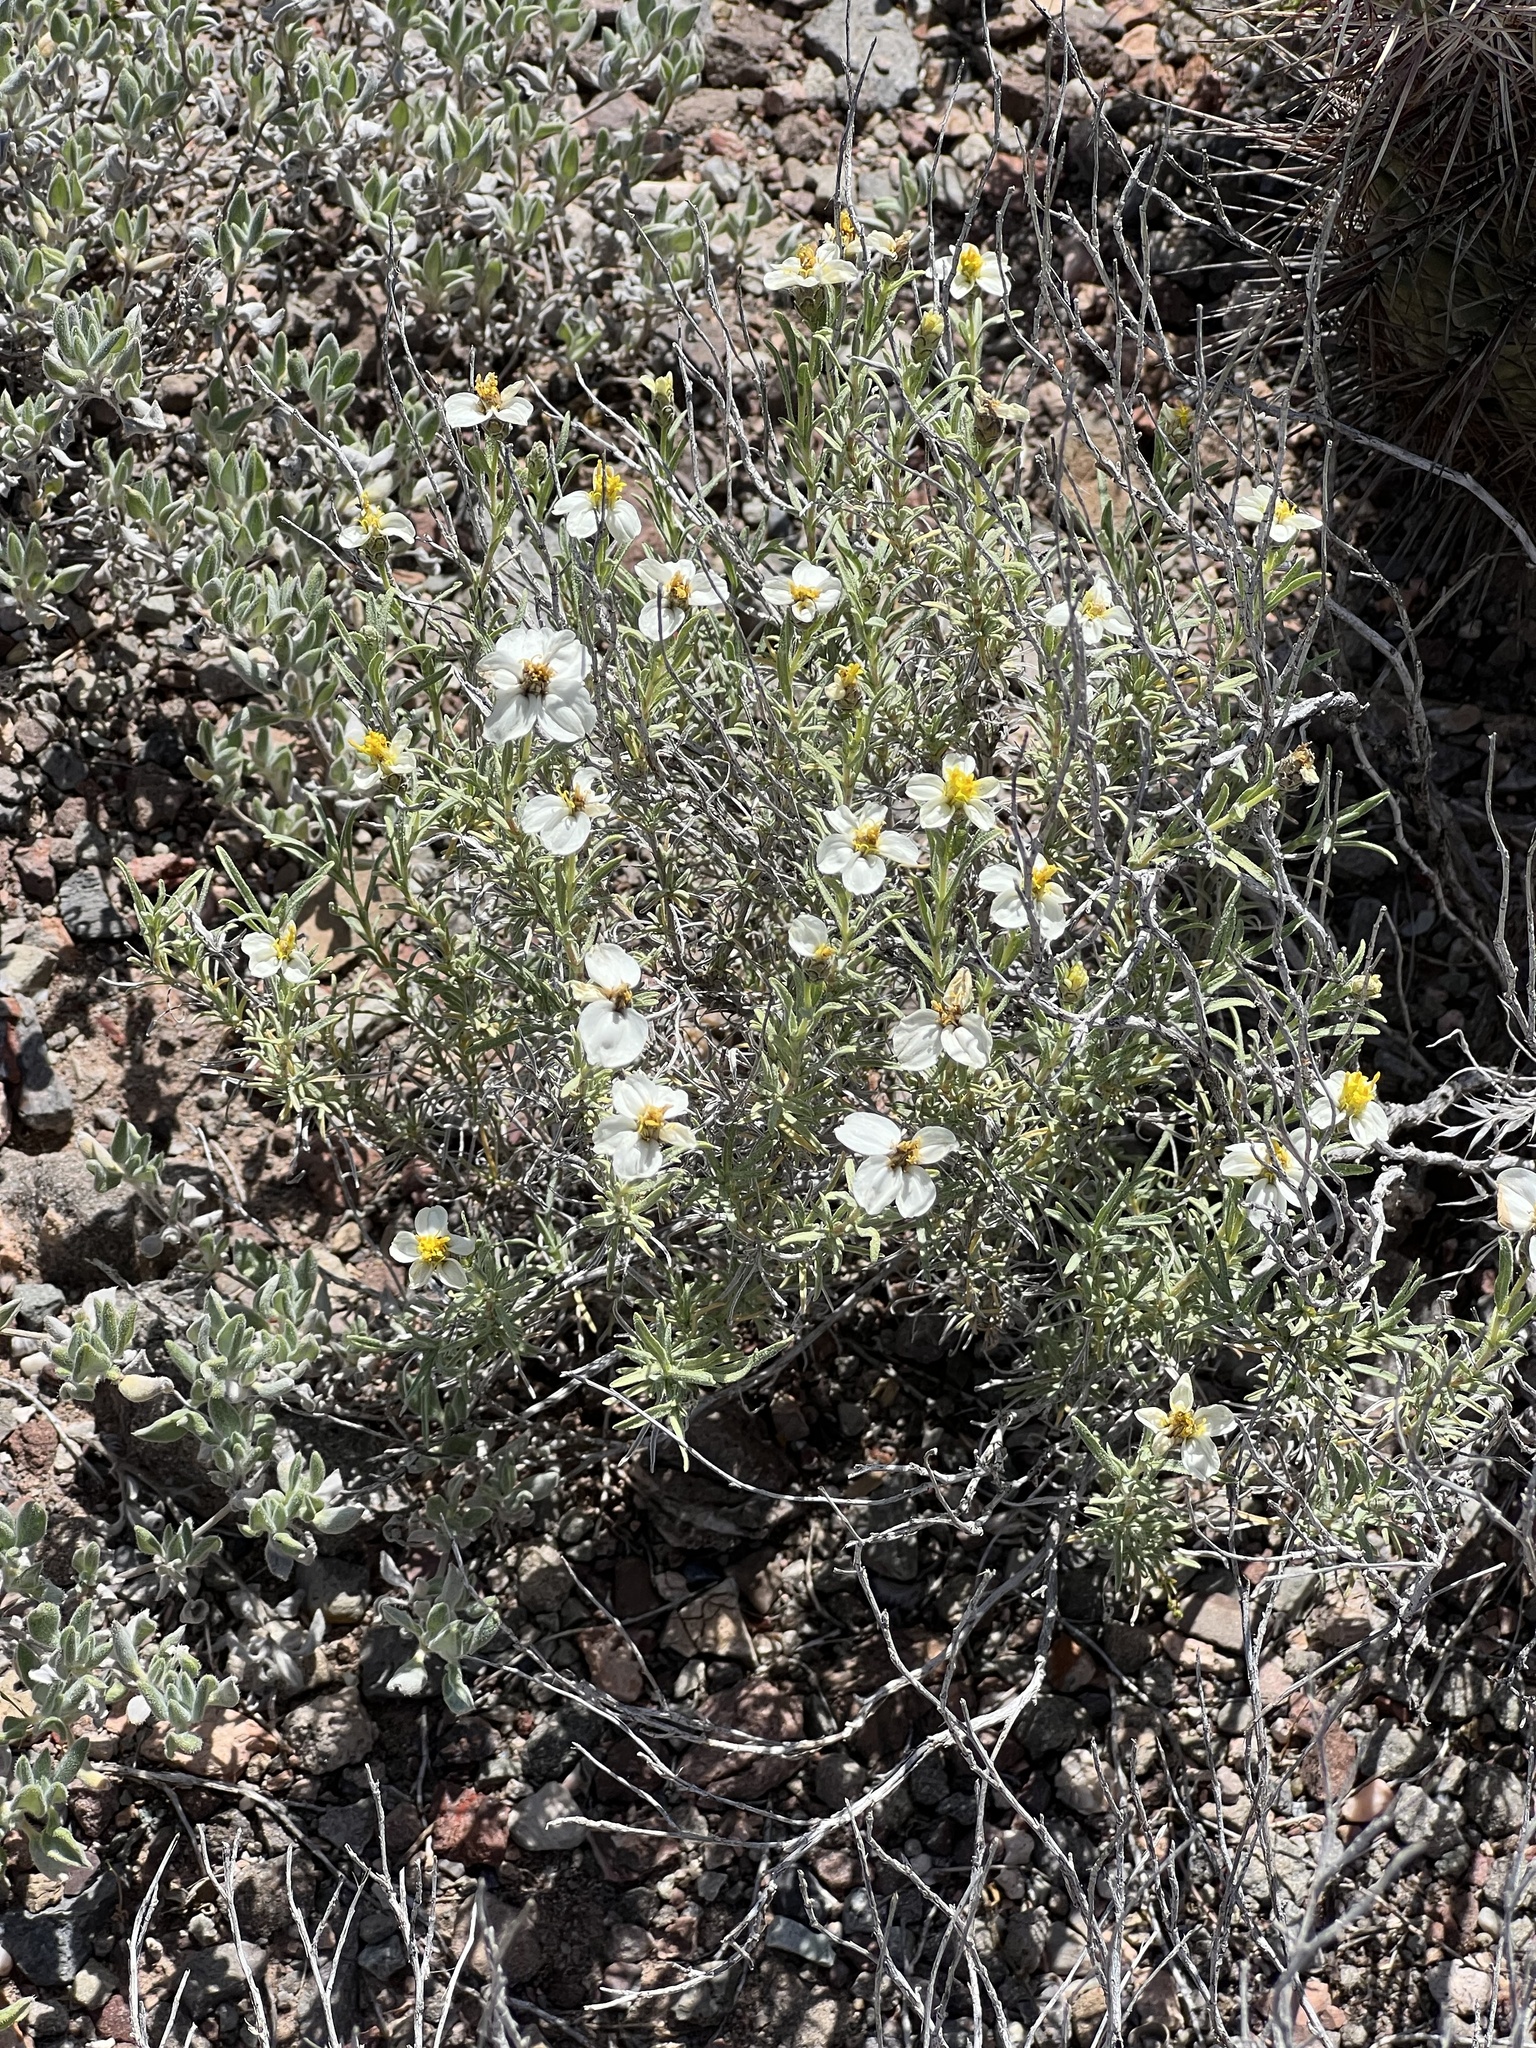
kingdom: Plantae
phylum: Tracheophyta
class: Magnoliopsida
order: Asterales
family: Asteraceae
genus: Zinnia
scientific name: Zinnia acerosa
